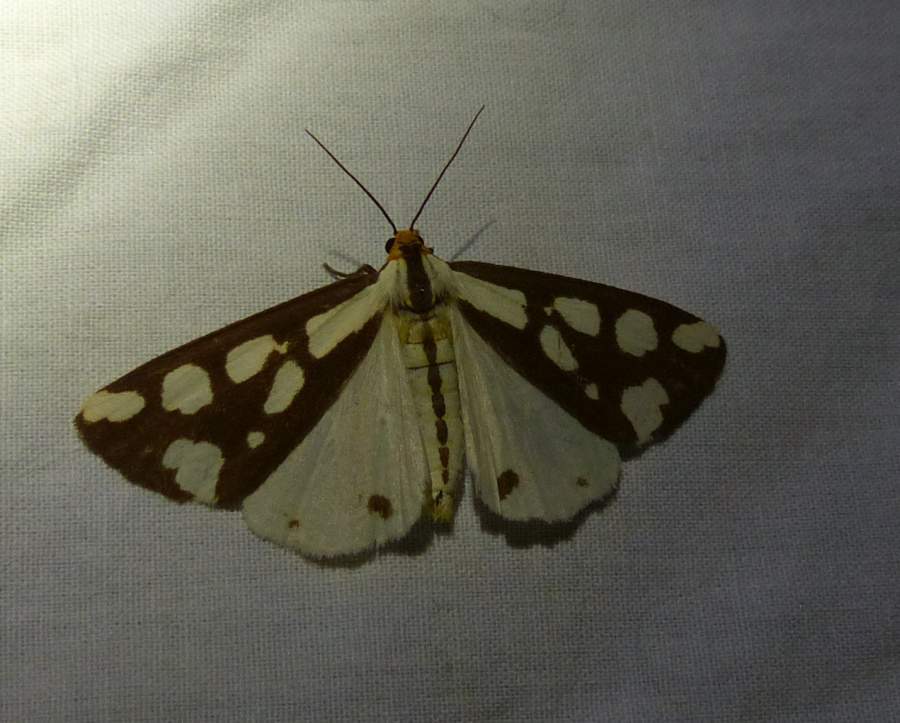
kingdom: Animalia
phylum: Arthropoda
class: Insecta
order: Lepidoptera
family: Erebidae
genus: Haploa
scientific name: Haploa confusa
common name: Confused haploa moth
